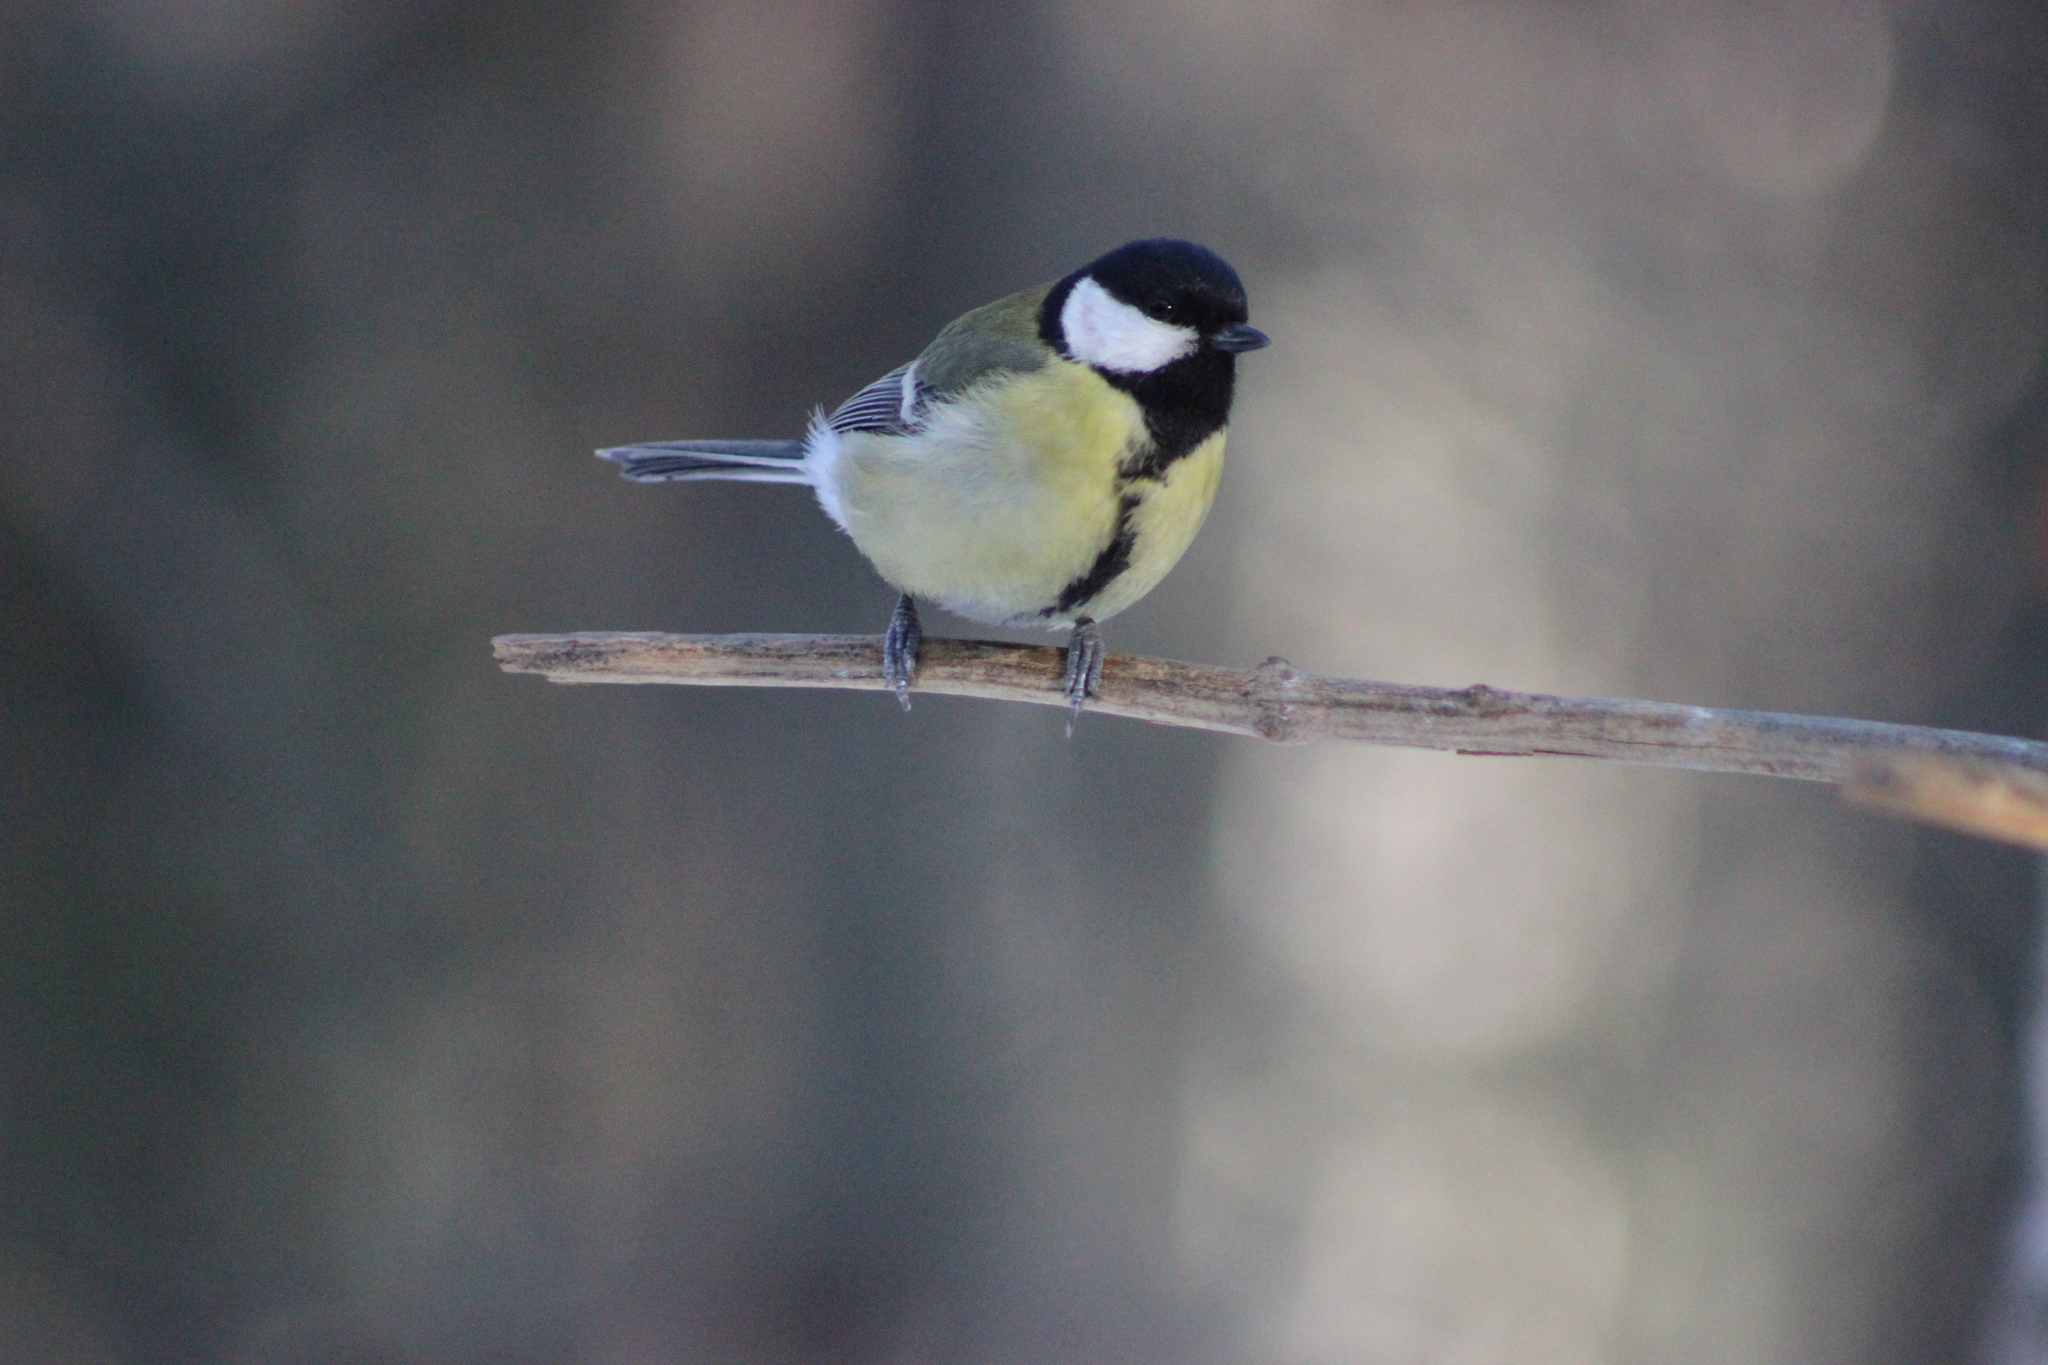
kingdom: Animalia
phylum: Chordata
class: Aves
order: Passeriformes
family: Paridae
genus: Parus
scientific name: Parus major
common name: Great tit
